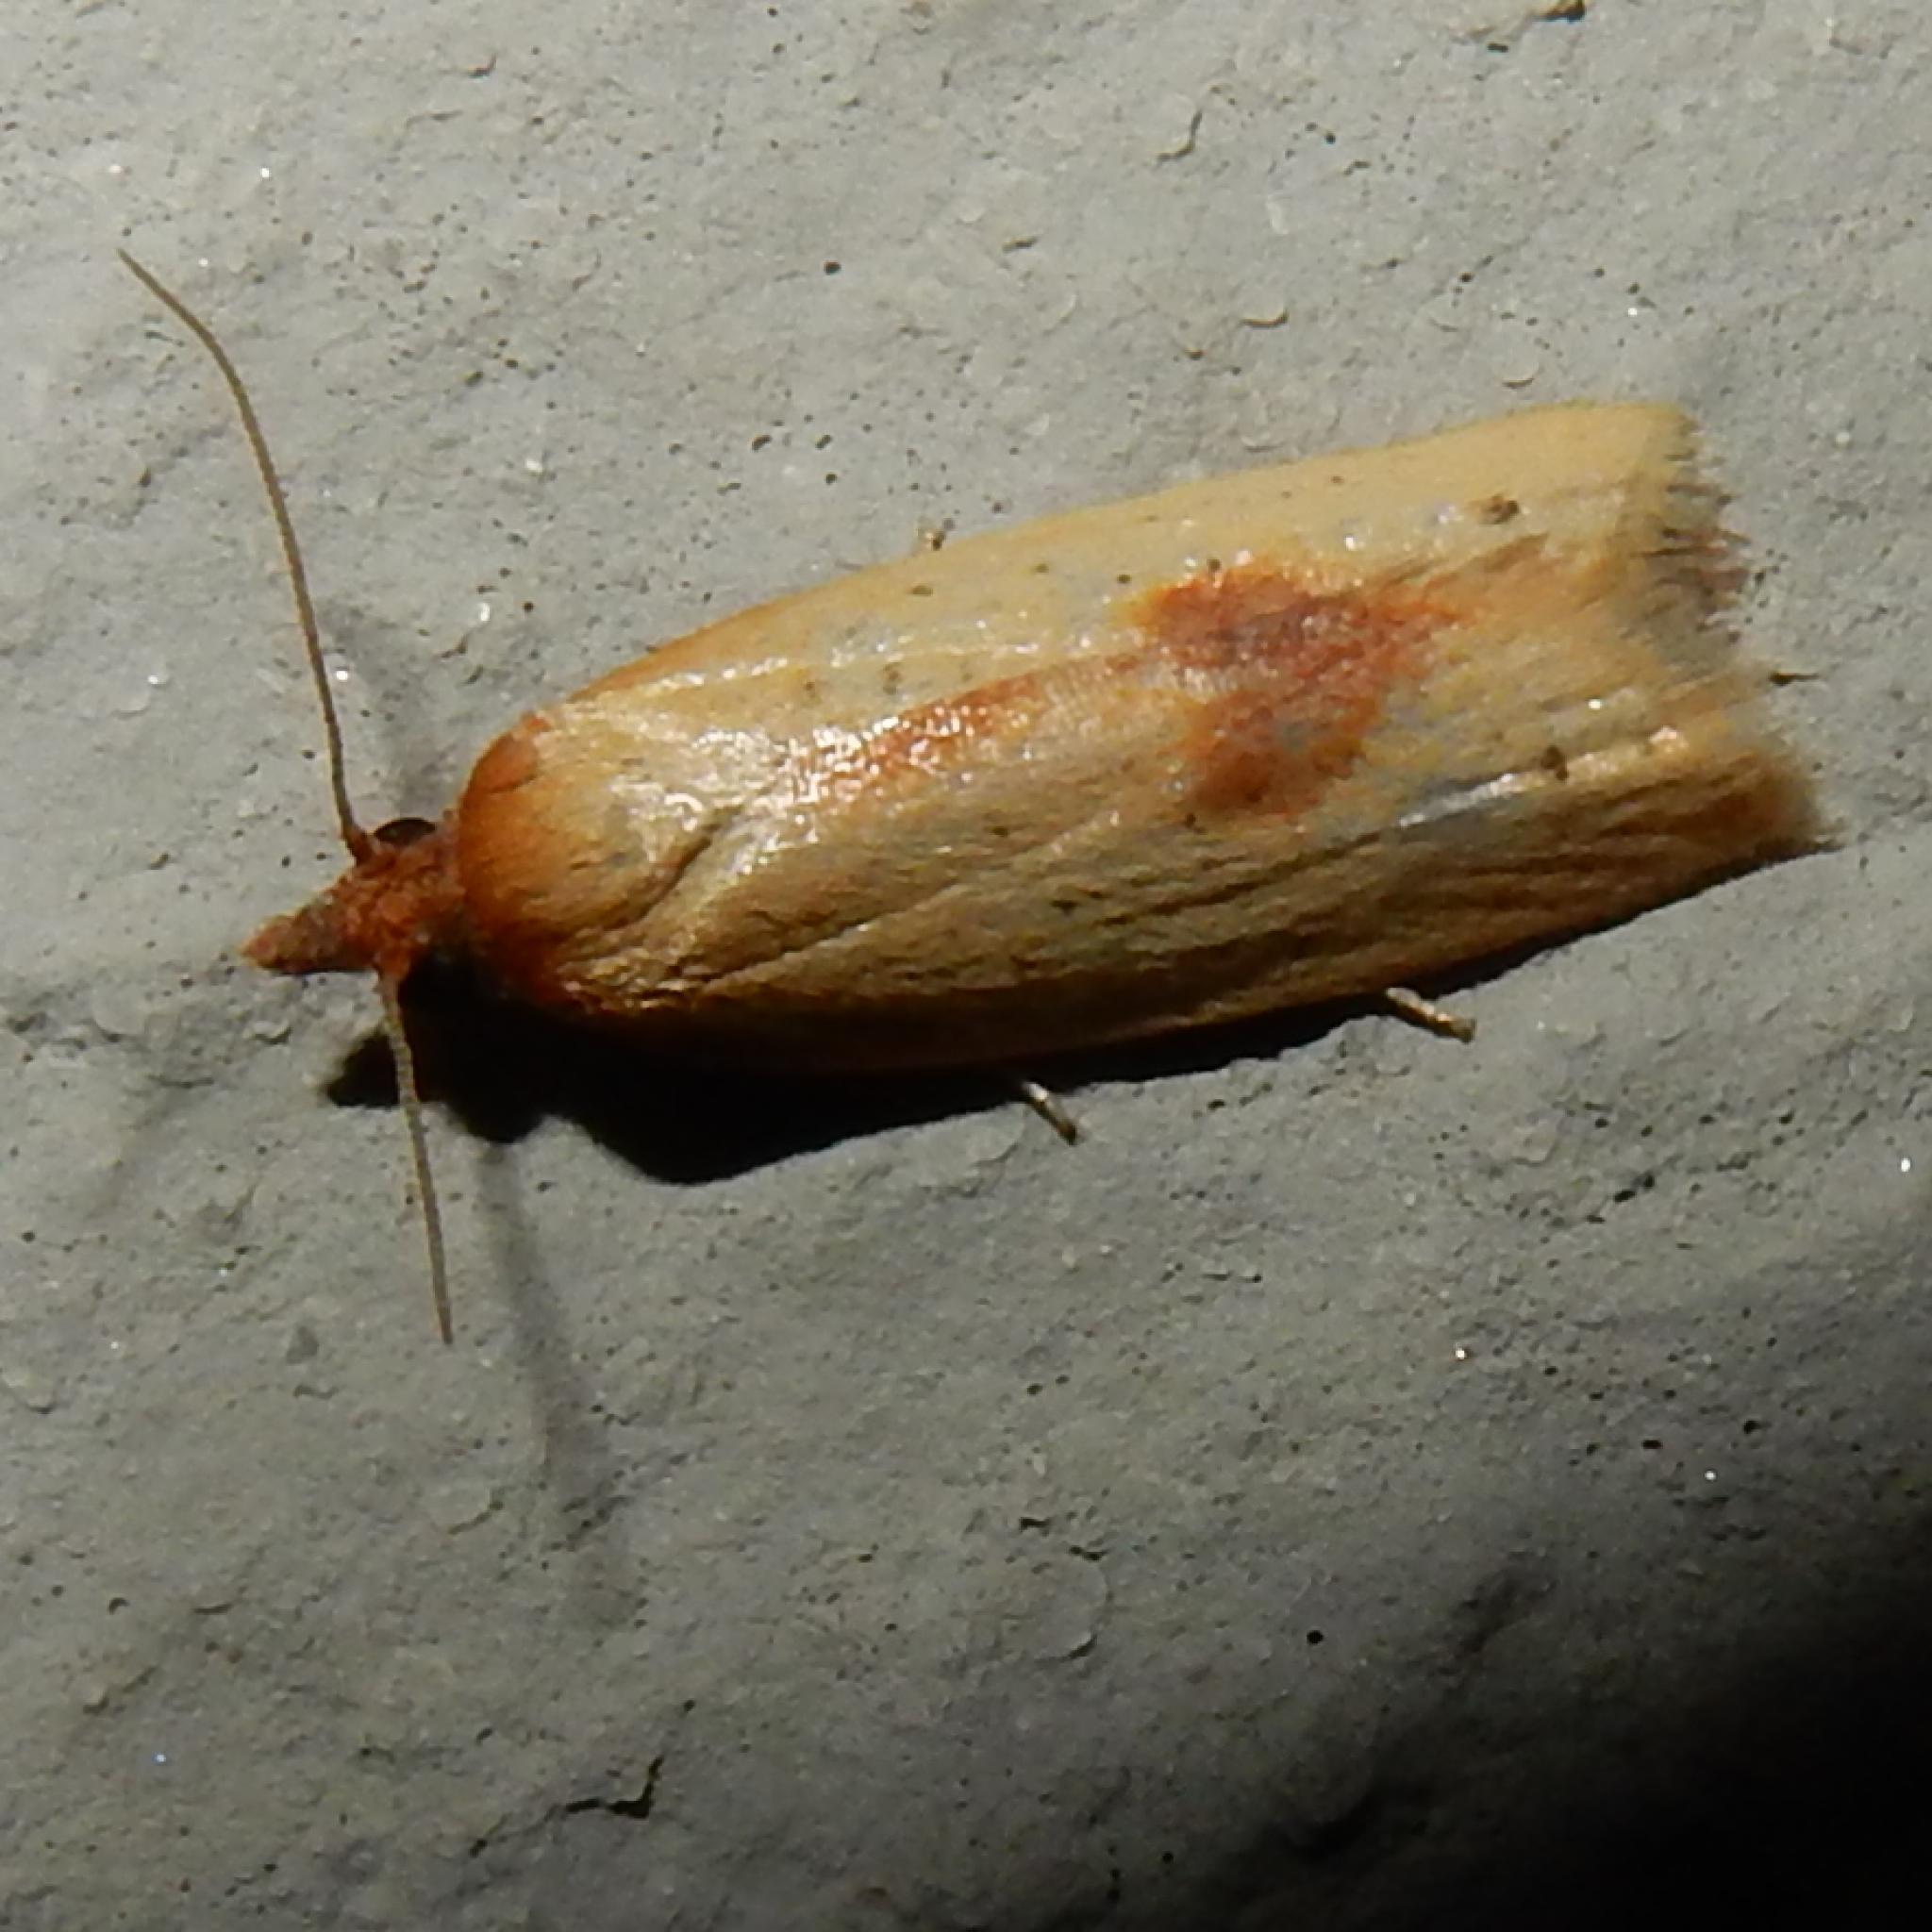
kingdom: Animalia
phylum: Arthropoda
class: Insecta
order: Lepidoptera
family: Tortricidae
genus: Epichoristodes
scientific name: Epichoristodes acerbella
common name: African carnation tortrix
